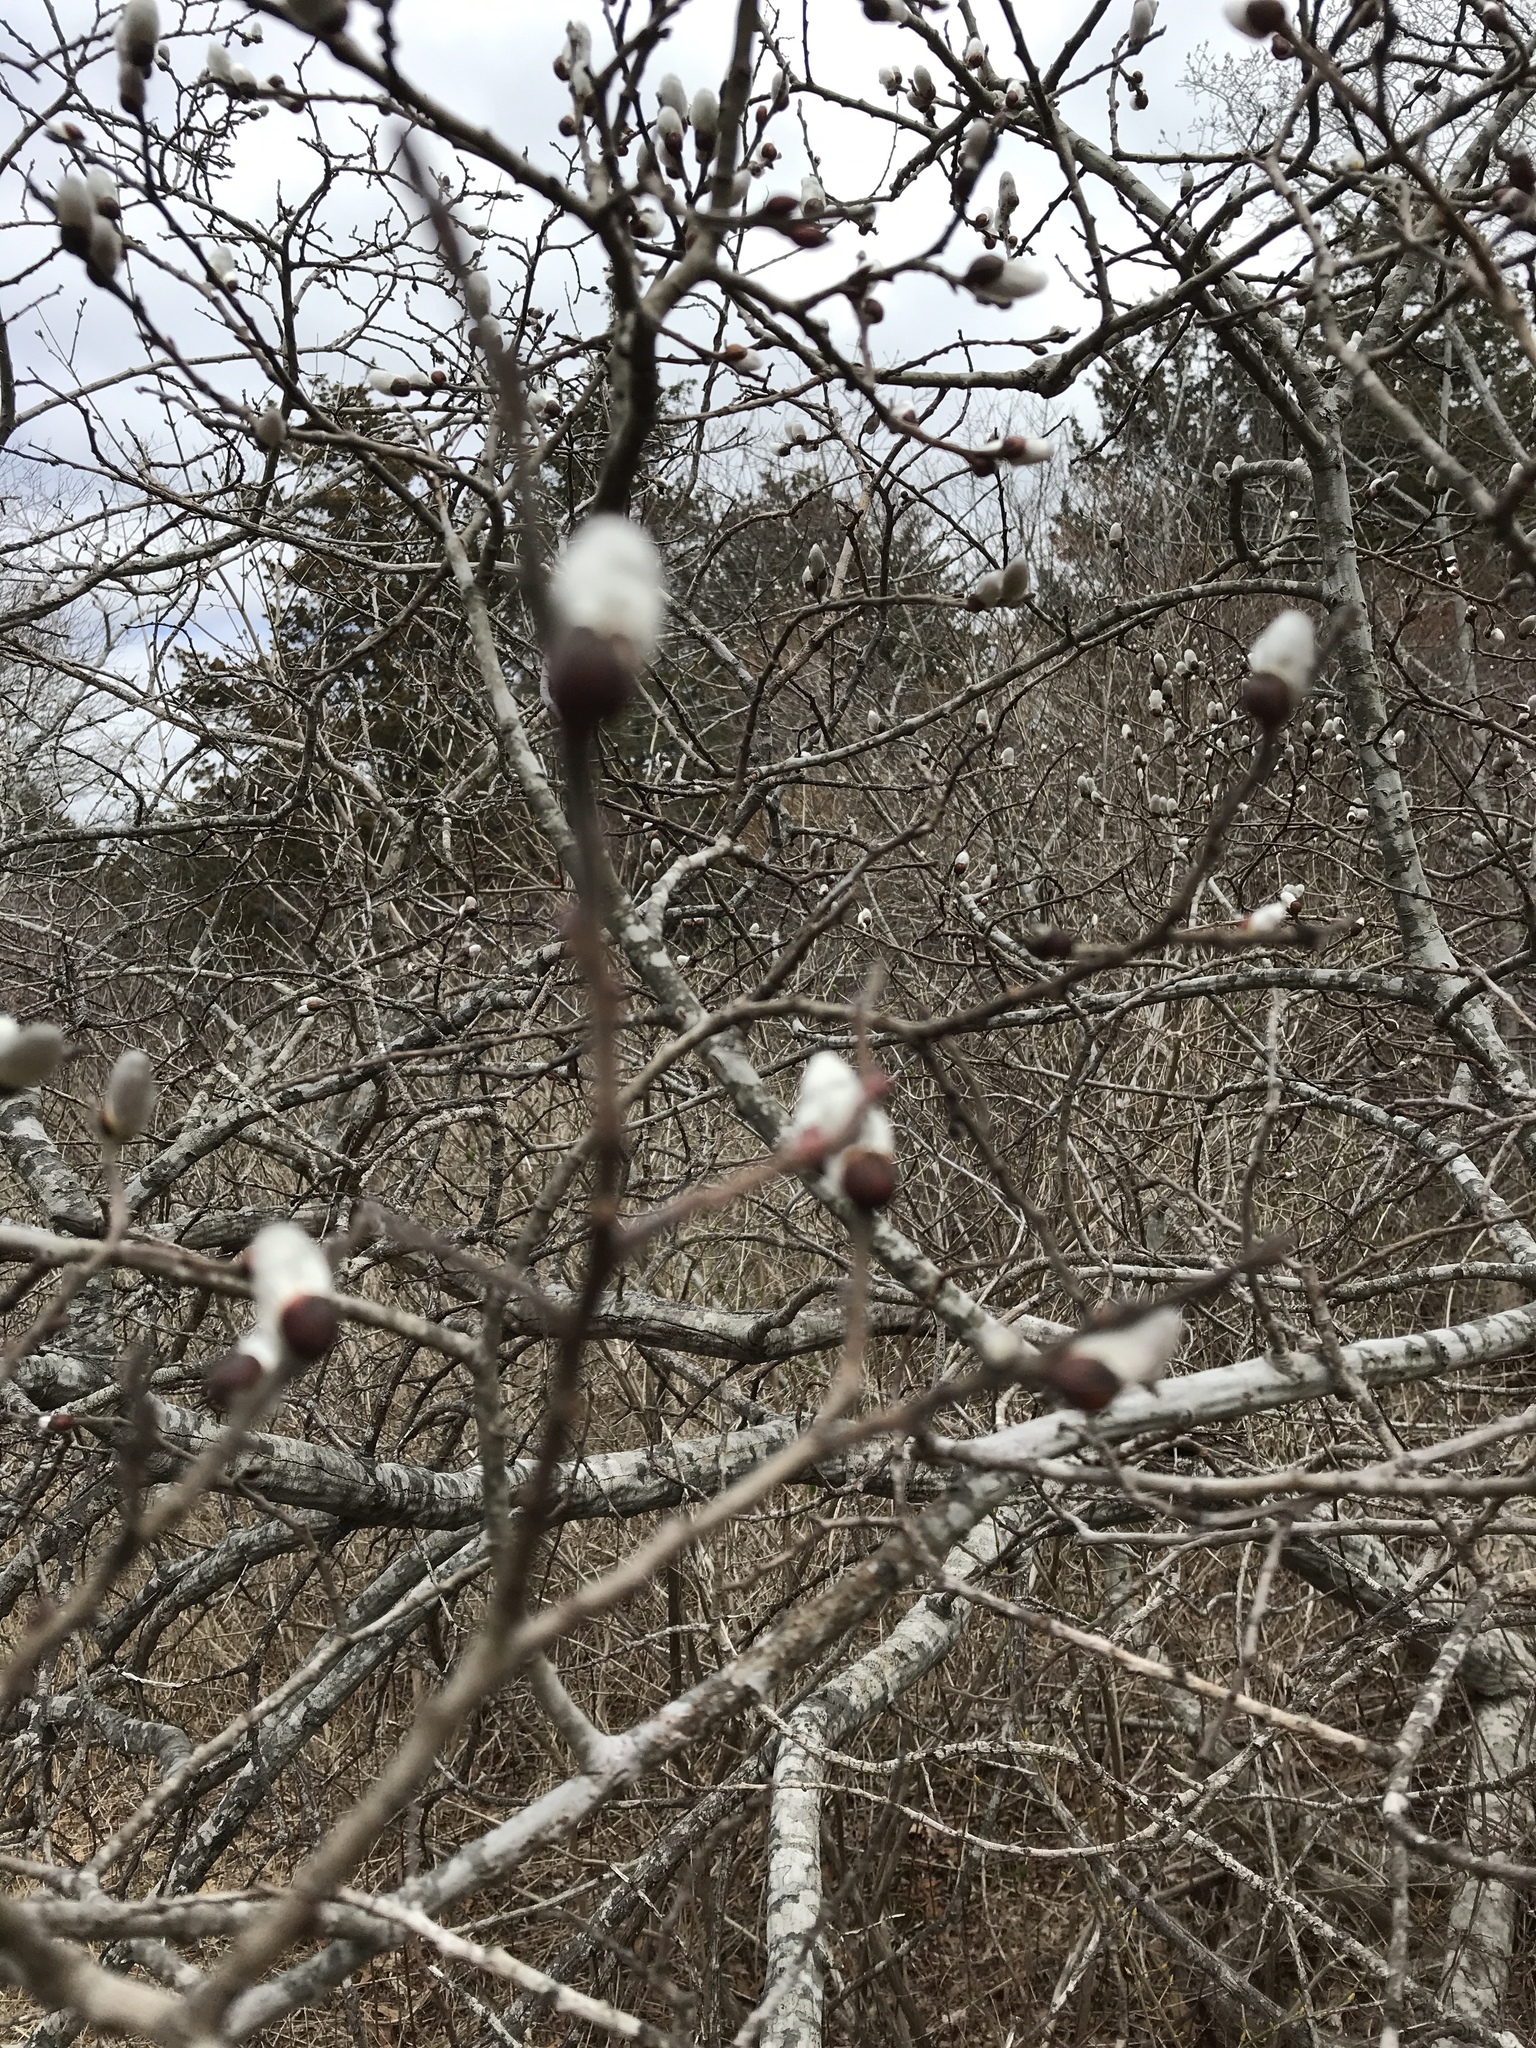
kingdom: Plantae
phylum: Tracheophyta
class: Magnoliopsida
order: Malpighiales
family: Salicaceae
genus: Salix
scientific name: Salix discolor
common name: Glaucous willow
